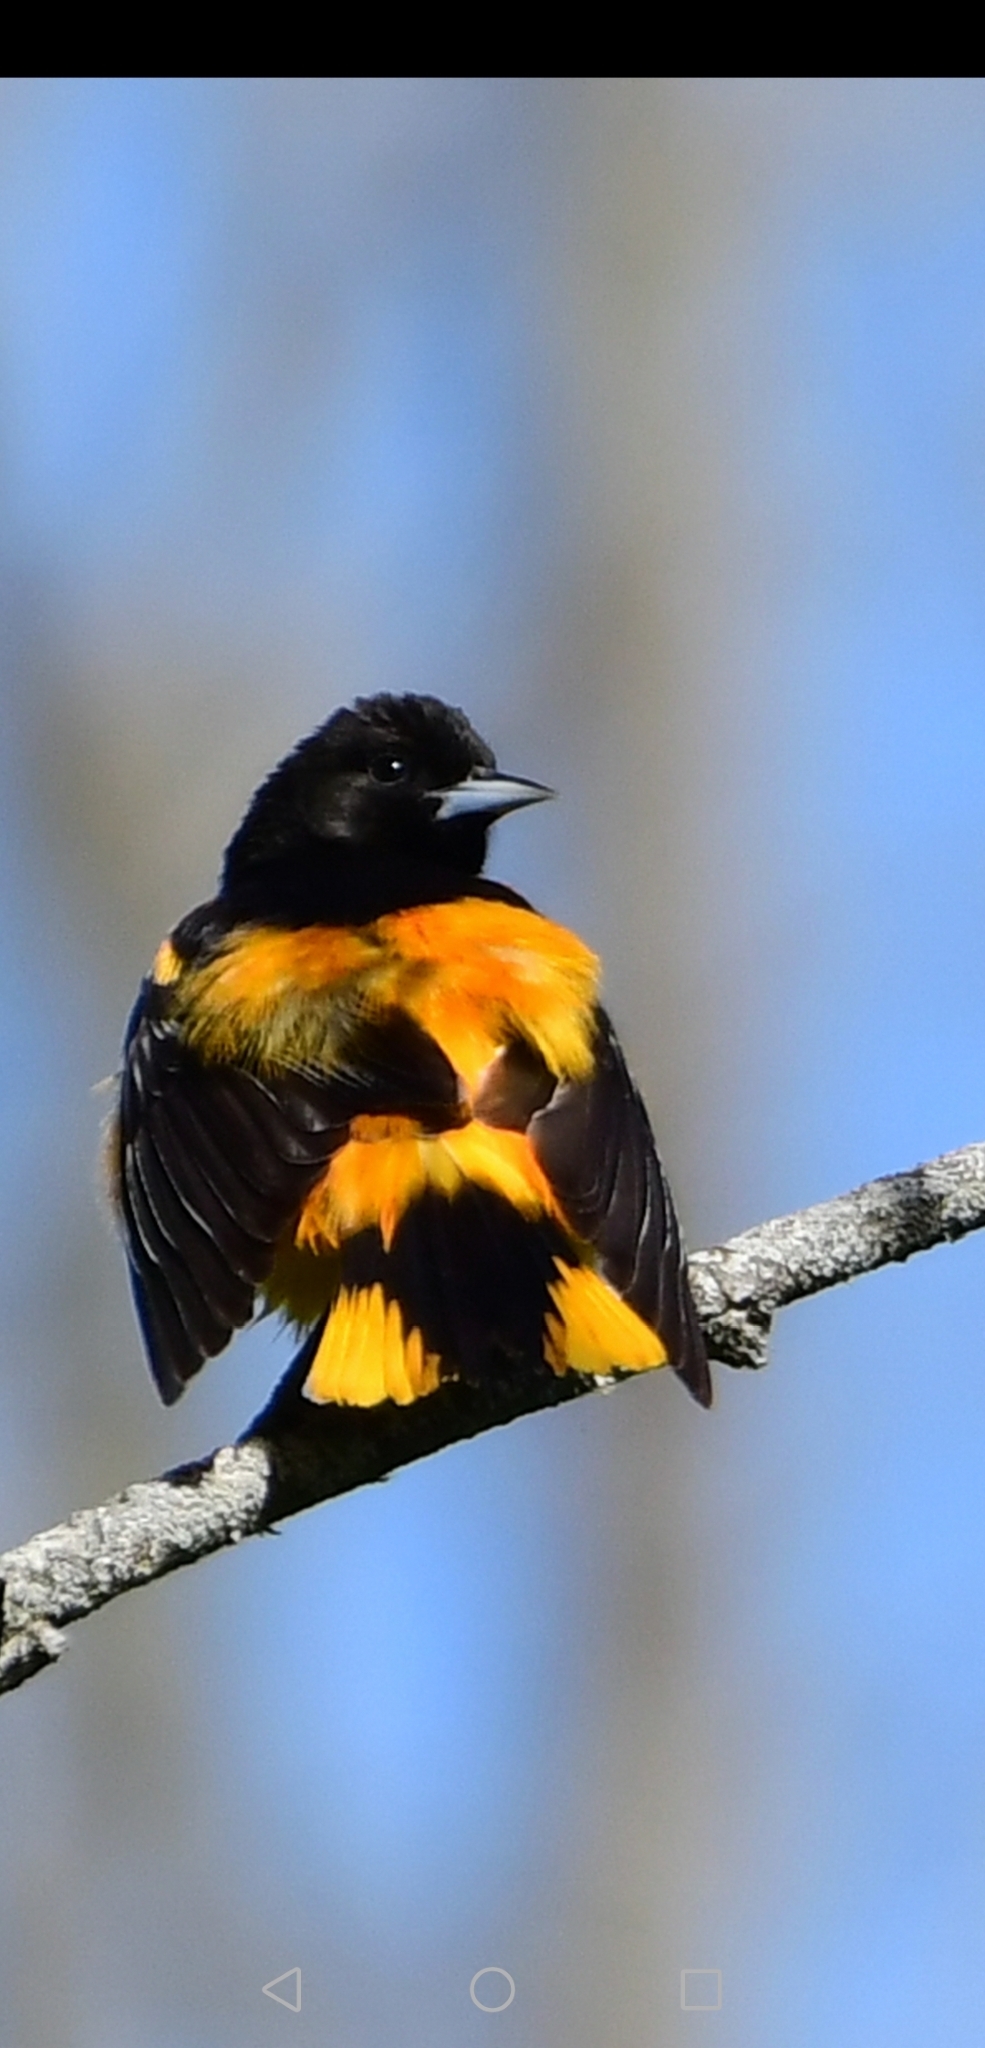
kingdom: Animalia
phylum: Chordata
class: Aves
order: Passeriformes
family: Icteridae
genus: Icterus
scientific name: Icterus galbula
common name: Baltimore oriole
